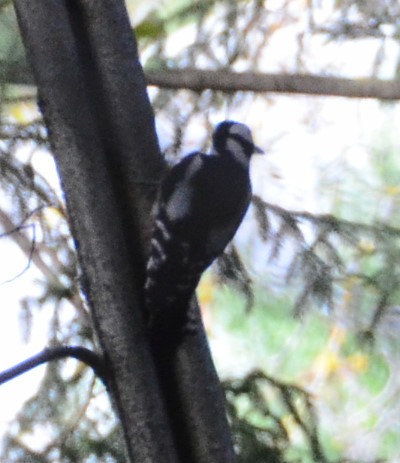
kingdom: Animalia
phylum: Chordata
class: Aves
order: Piciformes
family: Picidae
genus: Dendrocopos
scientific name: Dendrocopos major
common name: Great spotted woodpecker
